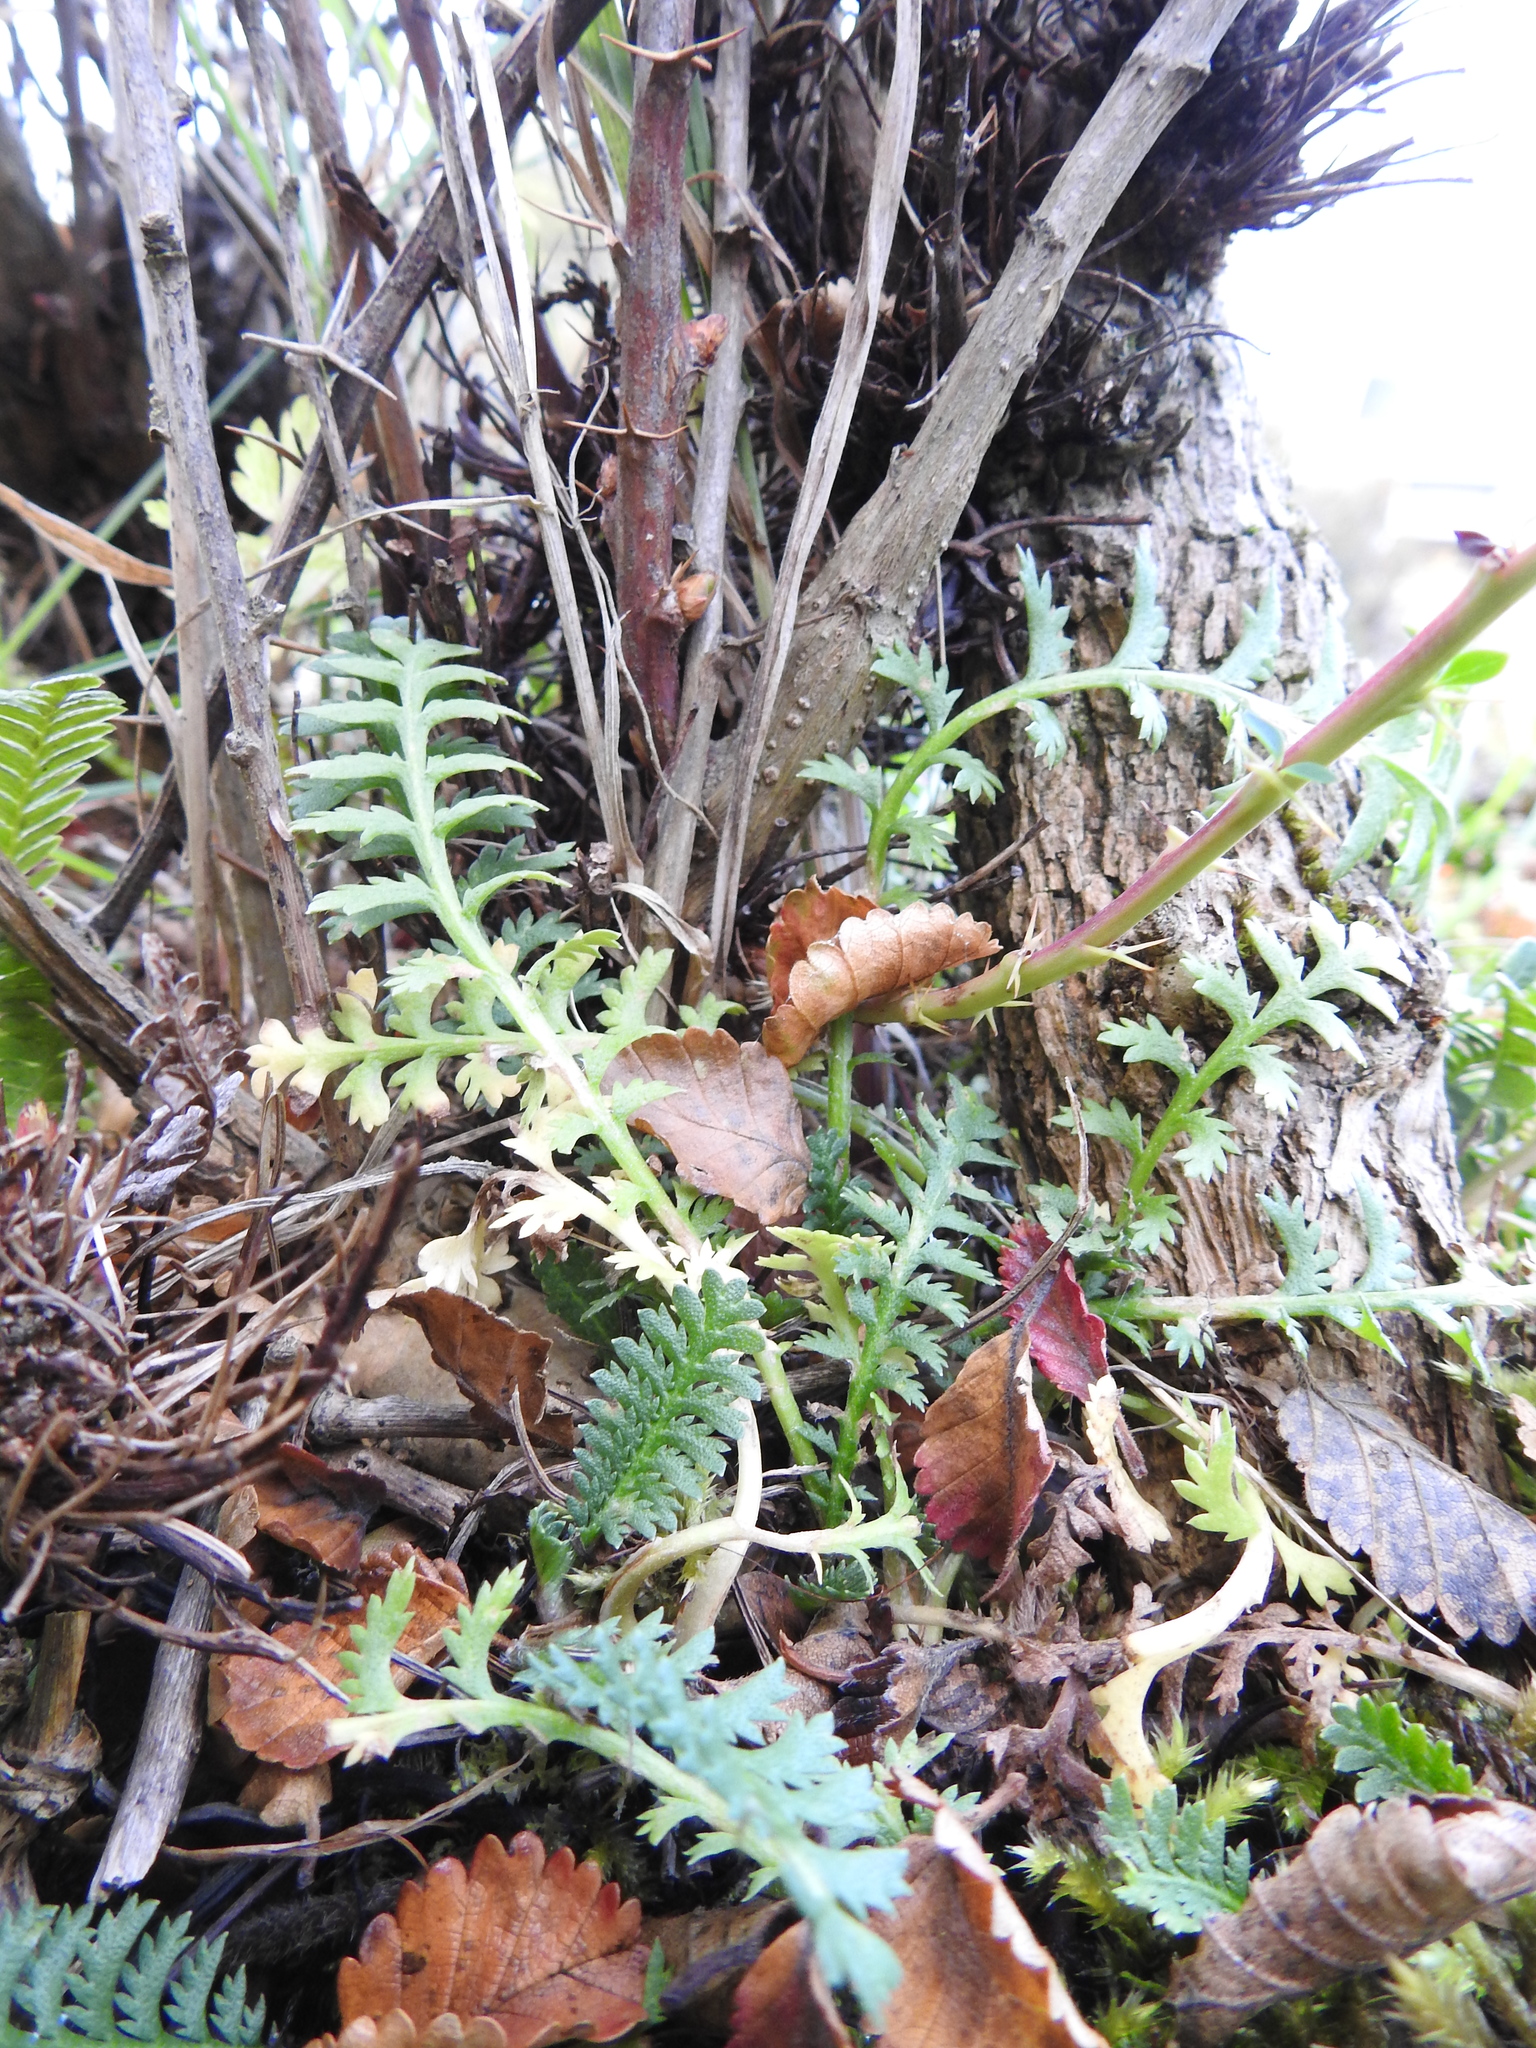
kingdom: Plantae
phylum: Tracheophyta
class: Magnoliopsida
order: Asterales
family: Asteraceae
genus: Leptinella
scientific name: Leptinella scariosa
